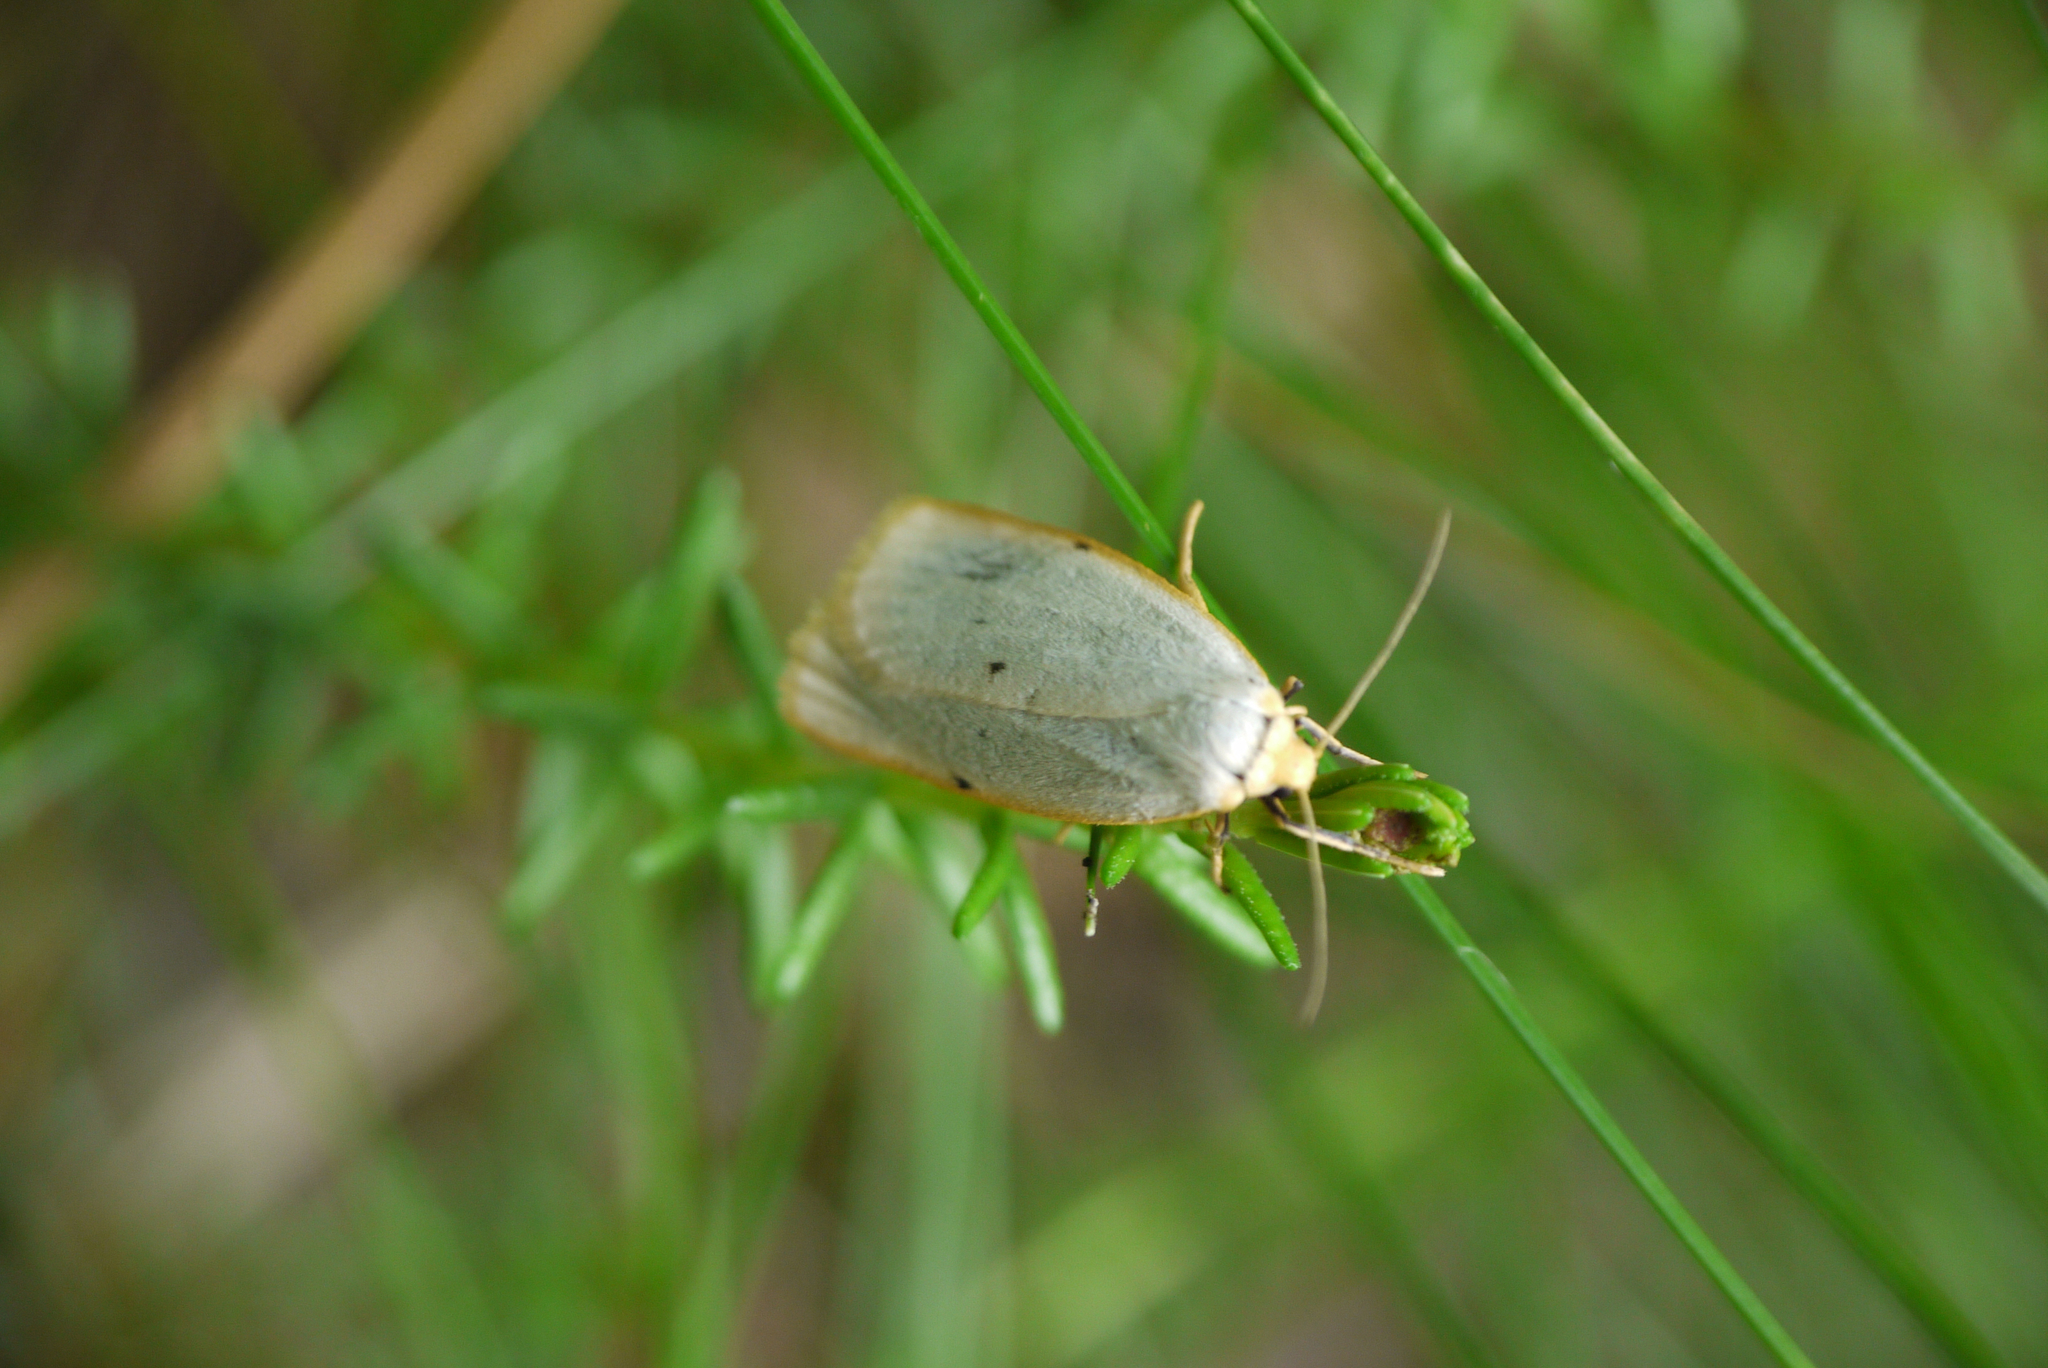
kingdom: Animalia
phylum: Arthropoda
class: Insecta
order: Lepidoptera
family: Erebidae
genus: Cybosia
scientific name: Cybosia mesomella
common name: Four-dotted footman
